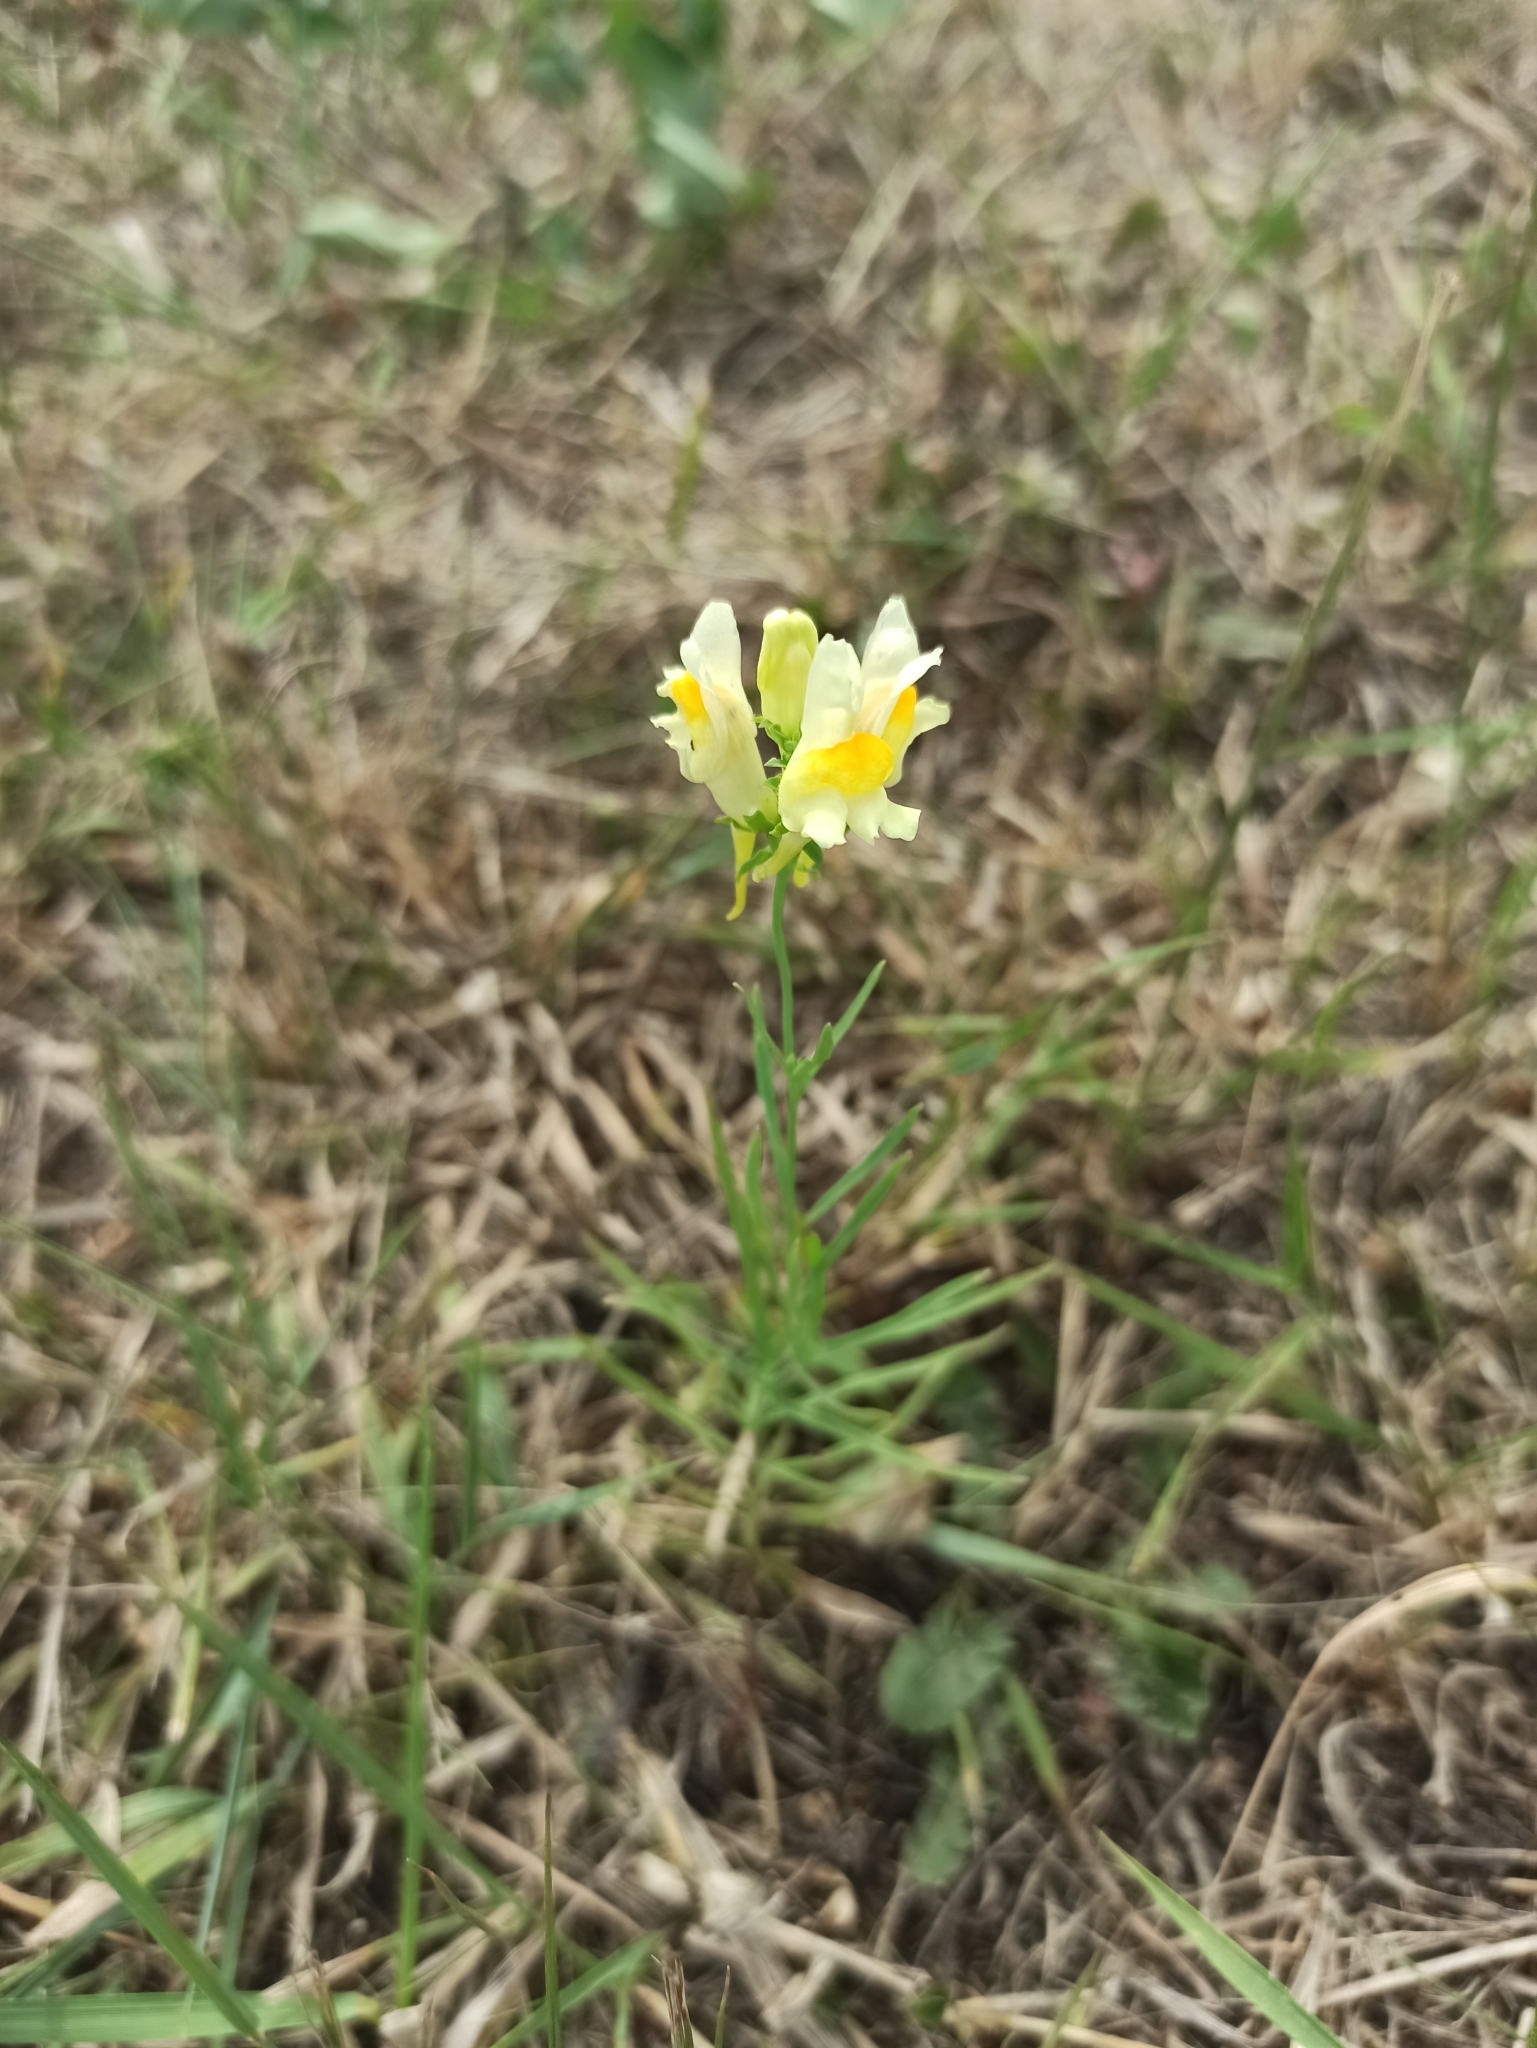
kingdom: Plantae
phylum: Tracheophyta
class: Magnoliopsida
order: Lamiales
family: Plantaginaceae
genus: Linaria
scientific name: Linaria vulgaris
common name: Butter and eggs
